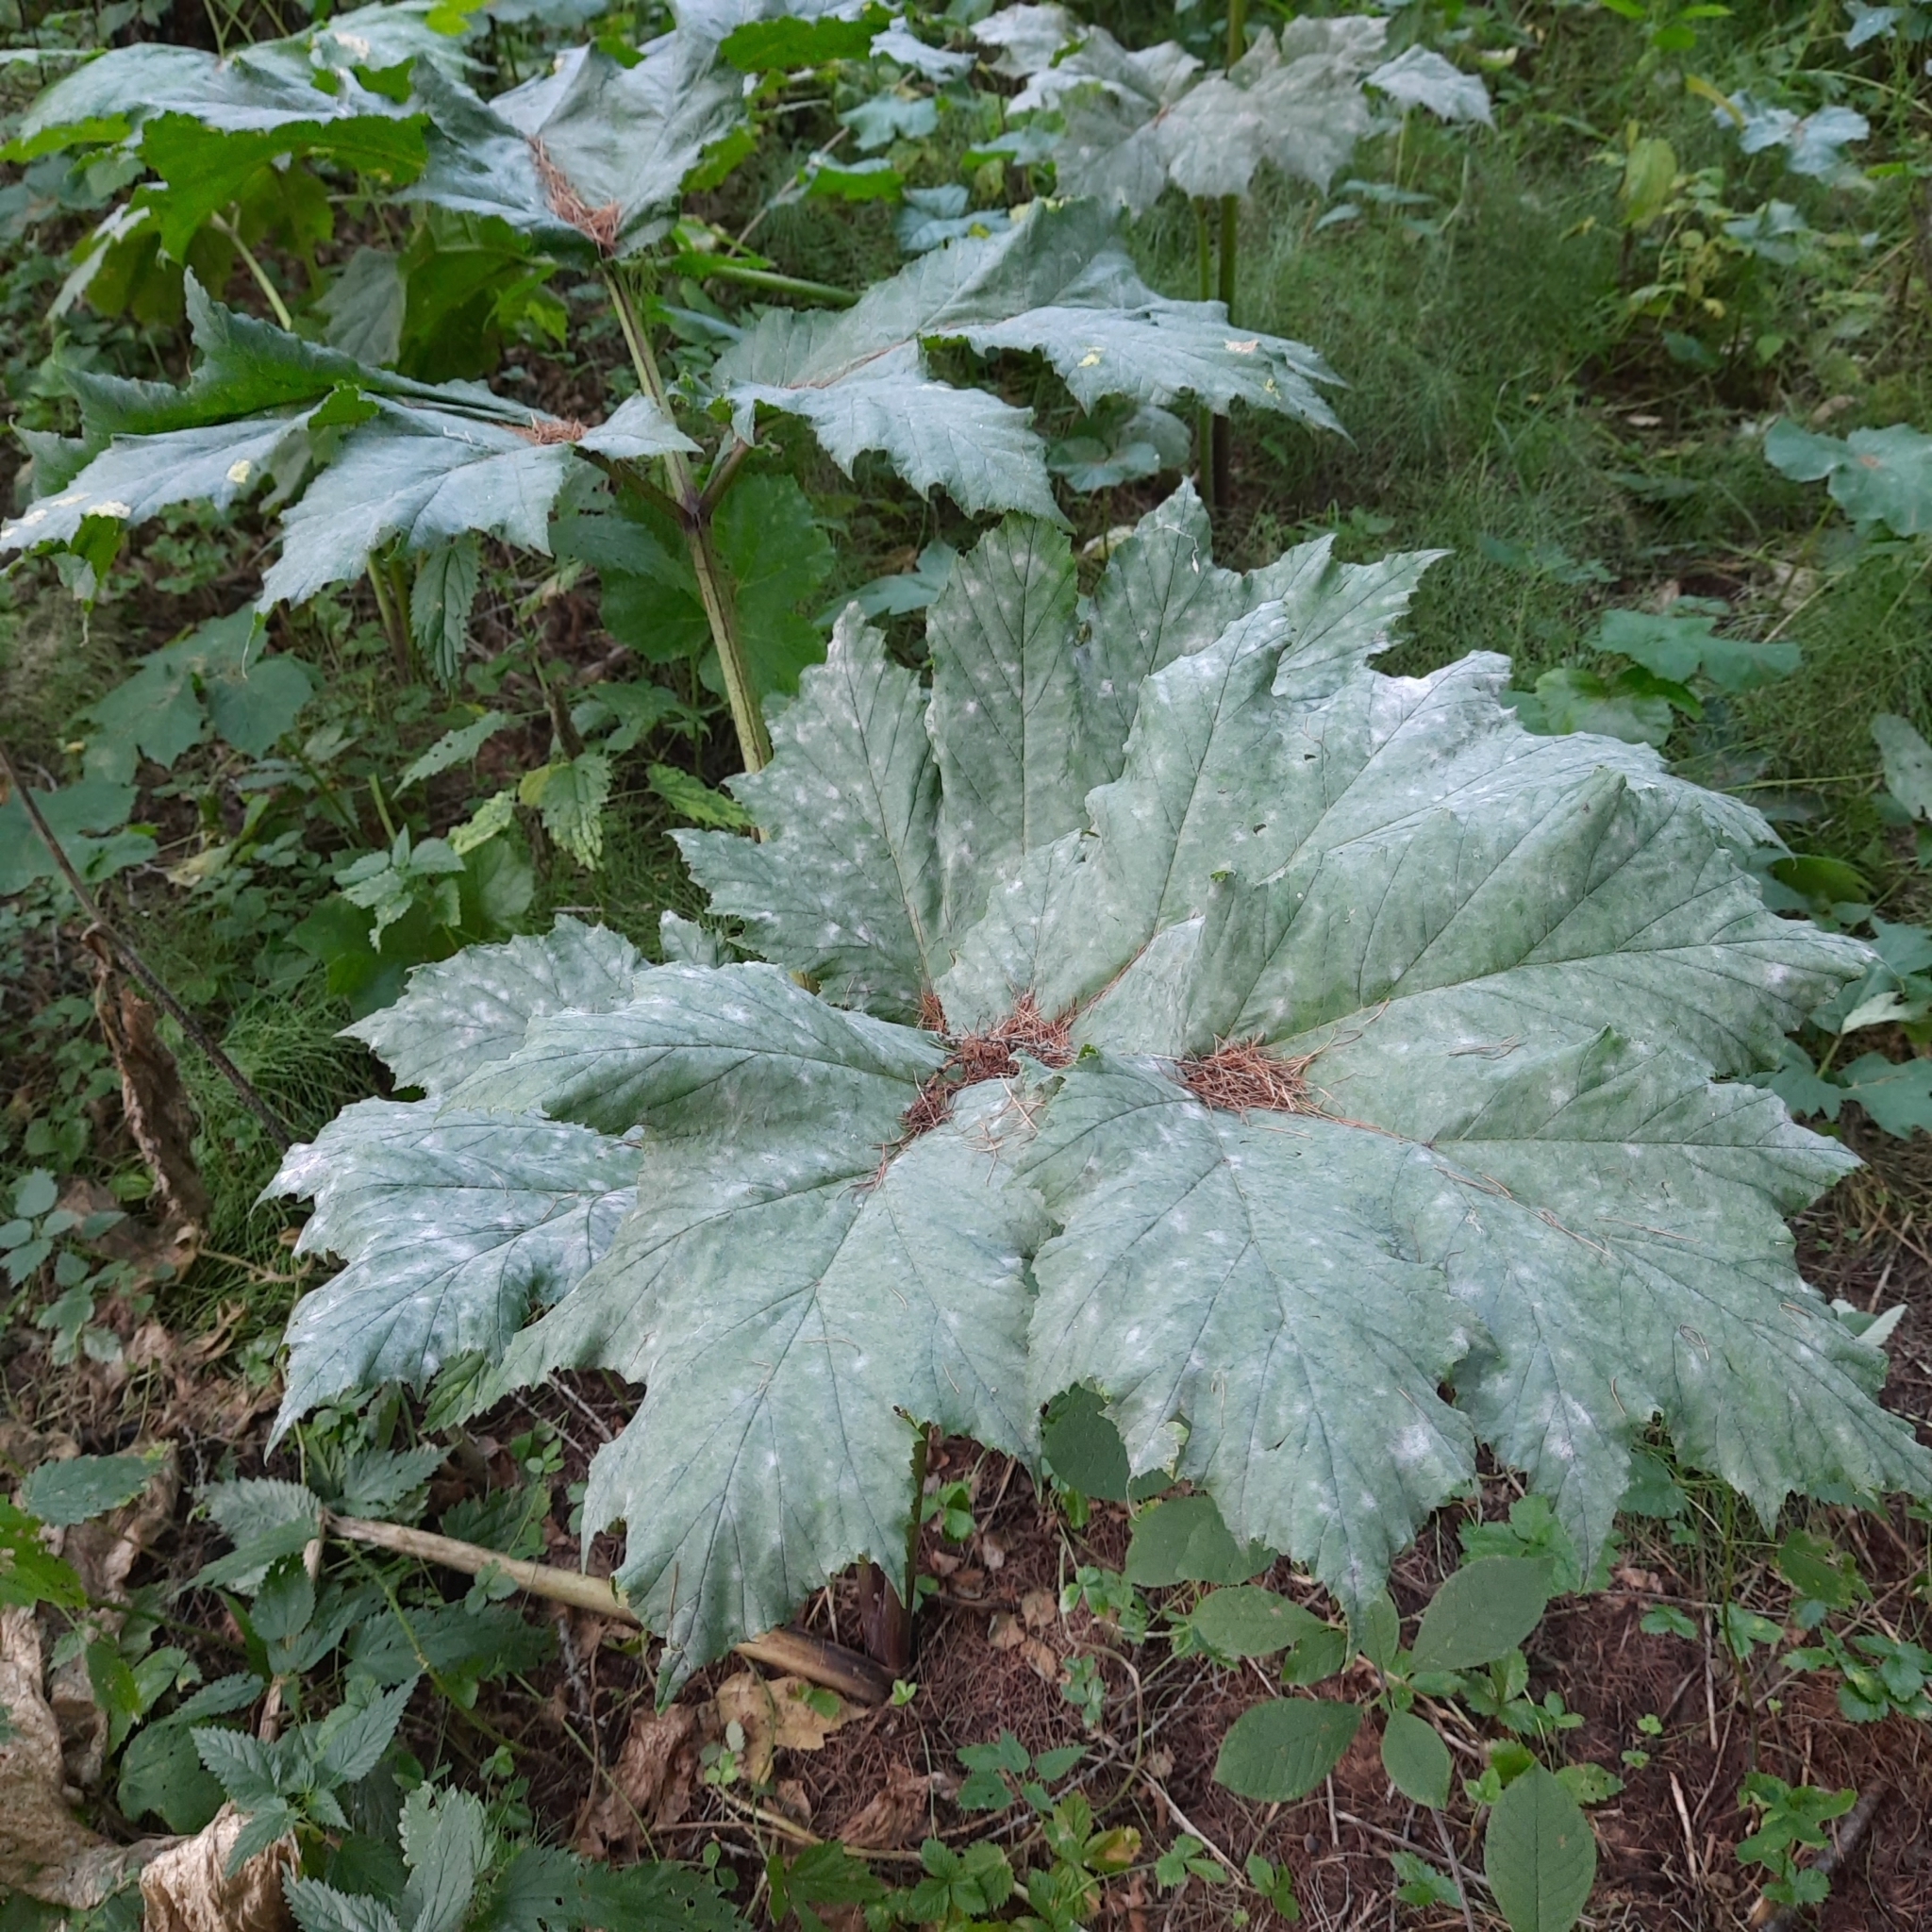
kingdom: Plantae
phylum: Tracheophyta
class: Magnoliopsida
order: Apiales
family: Apiaceae
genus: Heracleum
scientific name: Heracleum sosnowskyi
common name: Sosnowsky's hogweed
